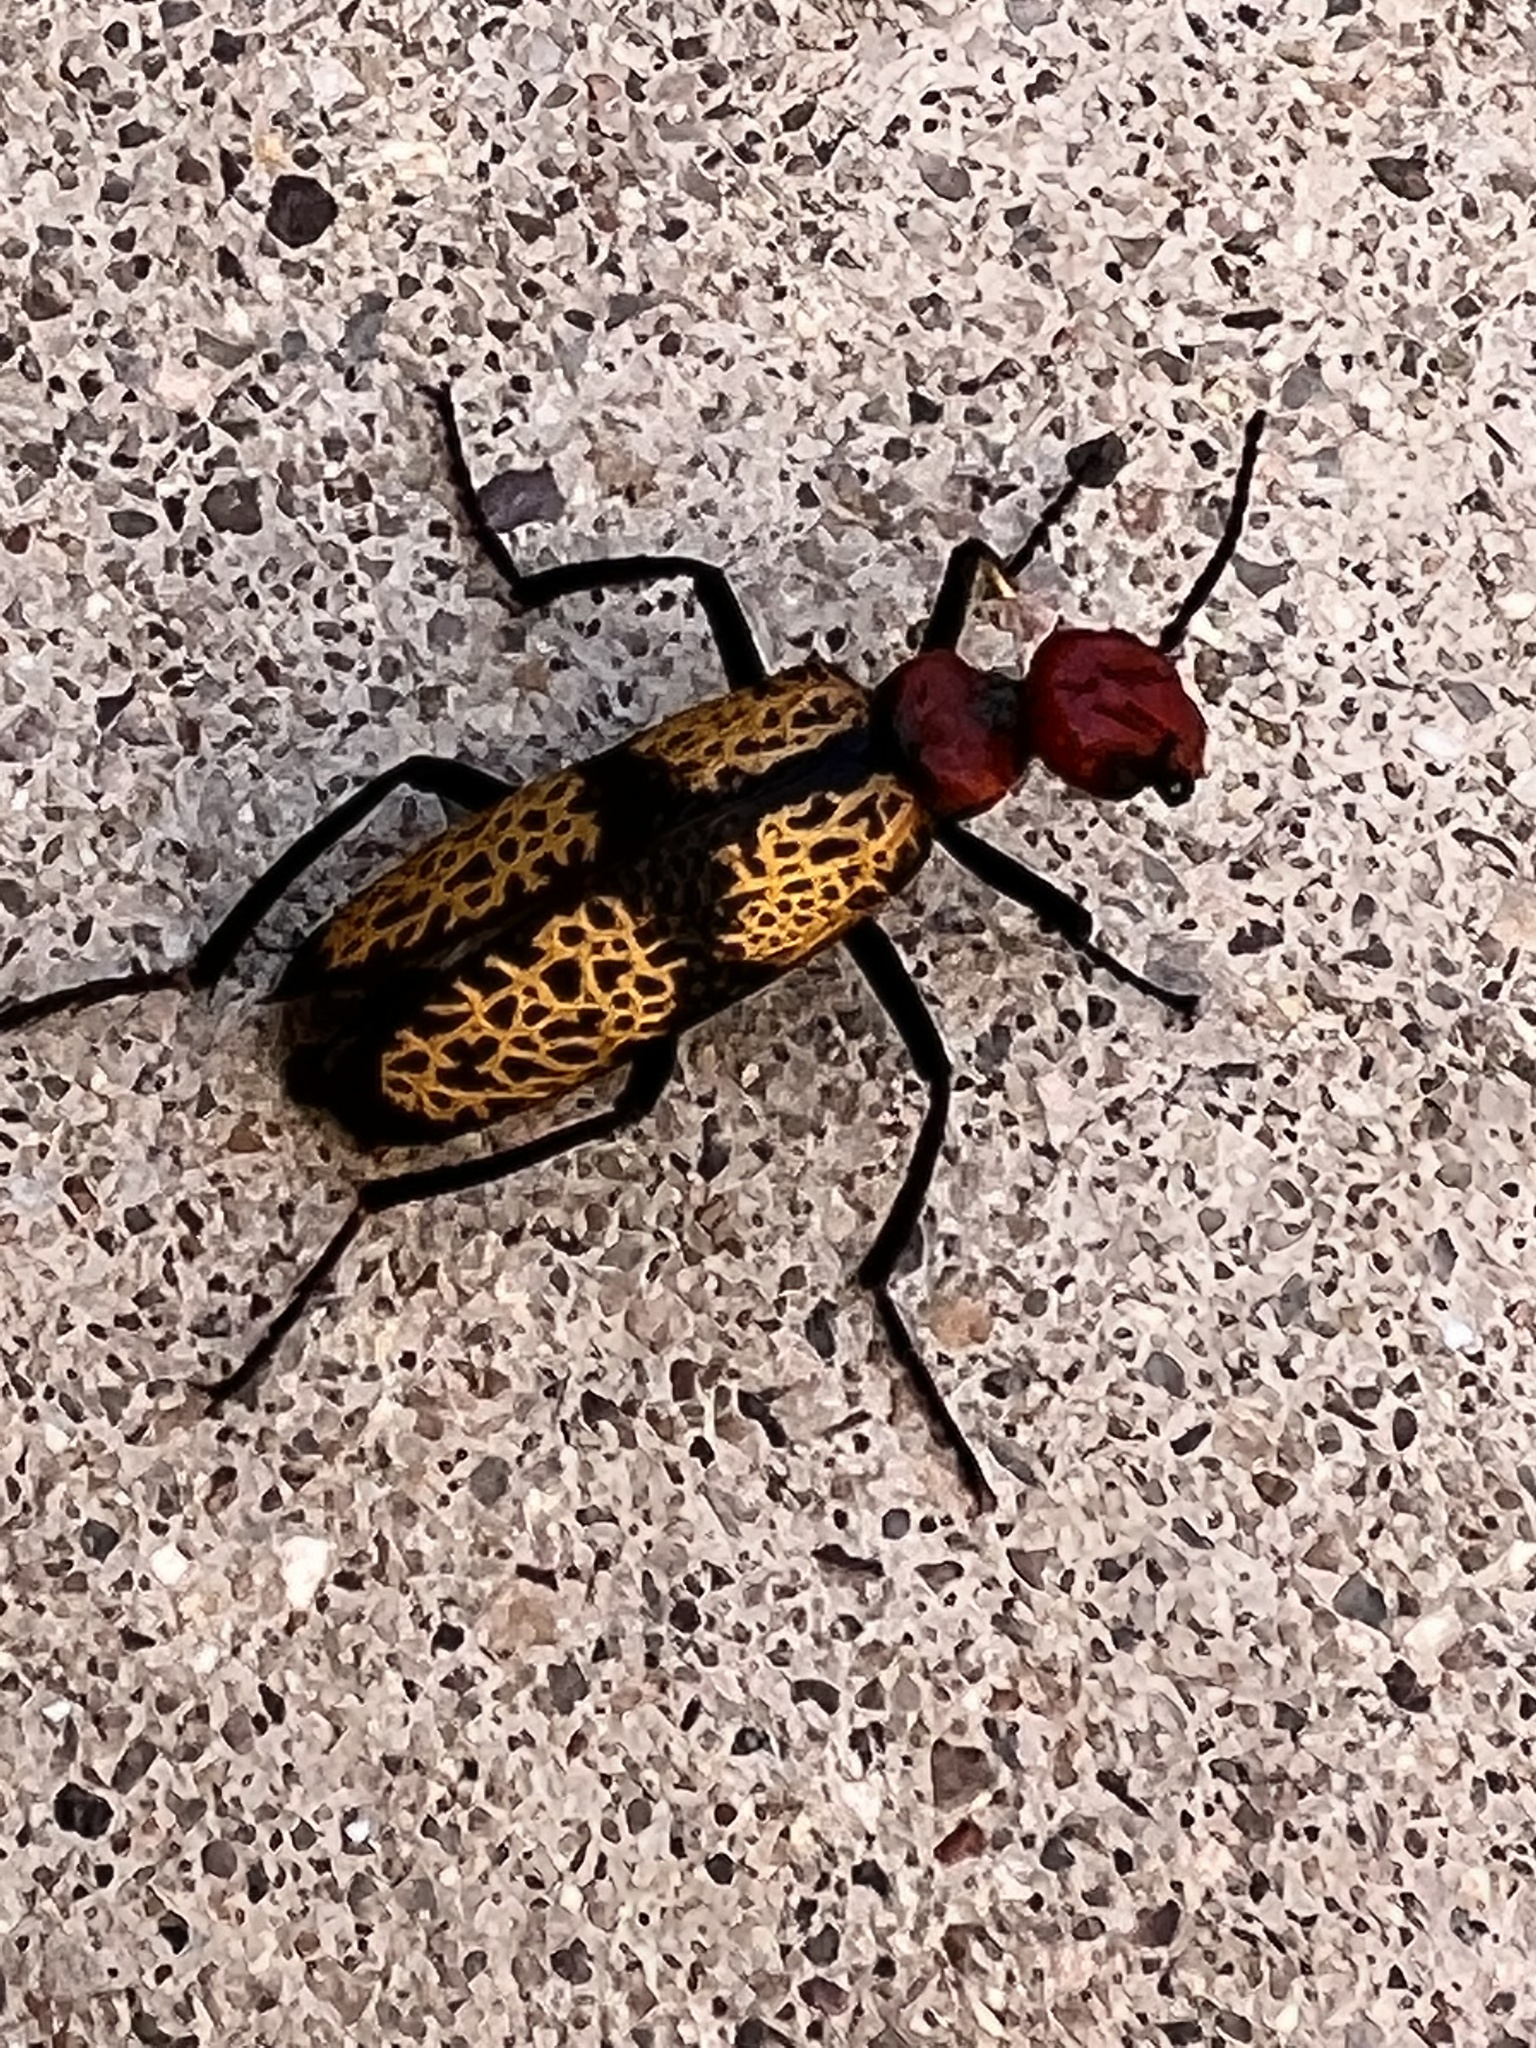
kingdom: Animalia
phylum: Arthropoda
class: Insecta
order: Coleoptera
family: Meloidae
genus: Tegrodera
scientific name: Tegrodera aloga
